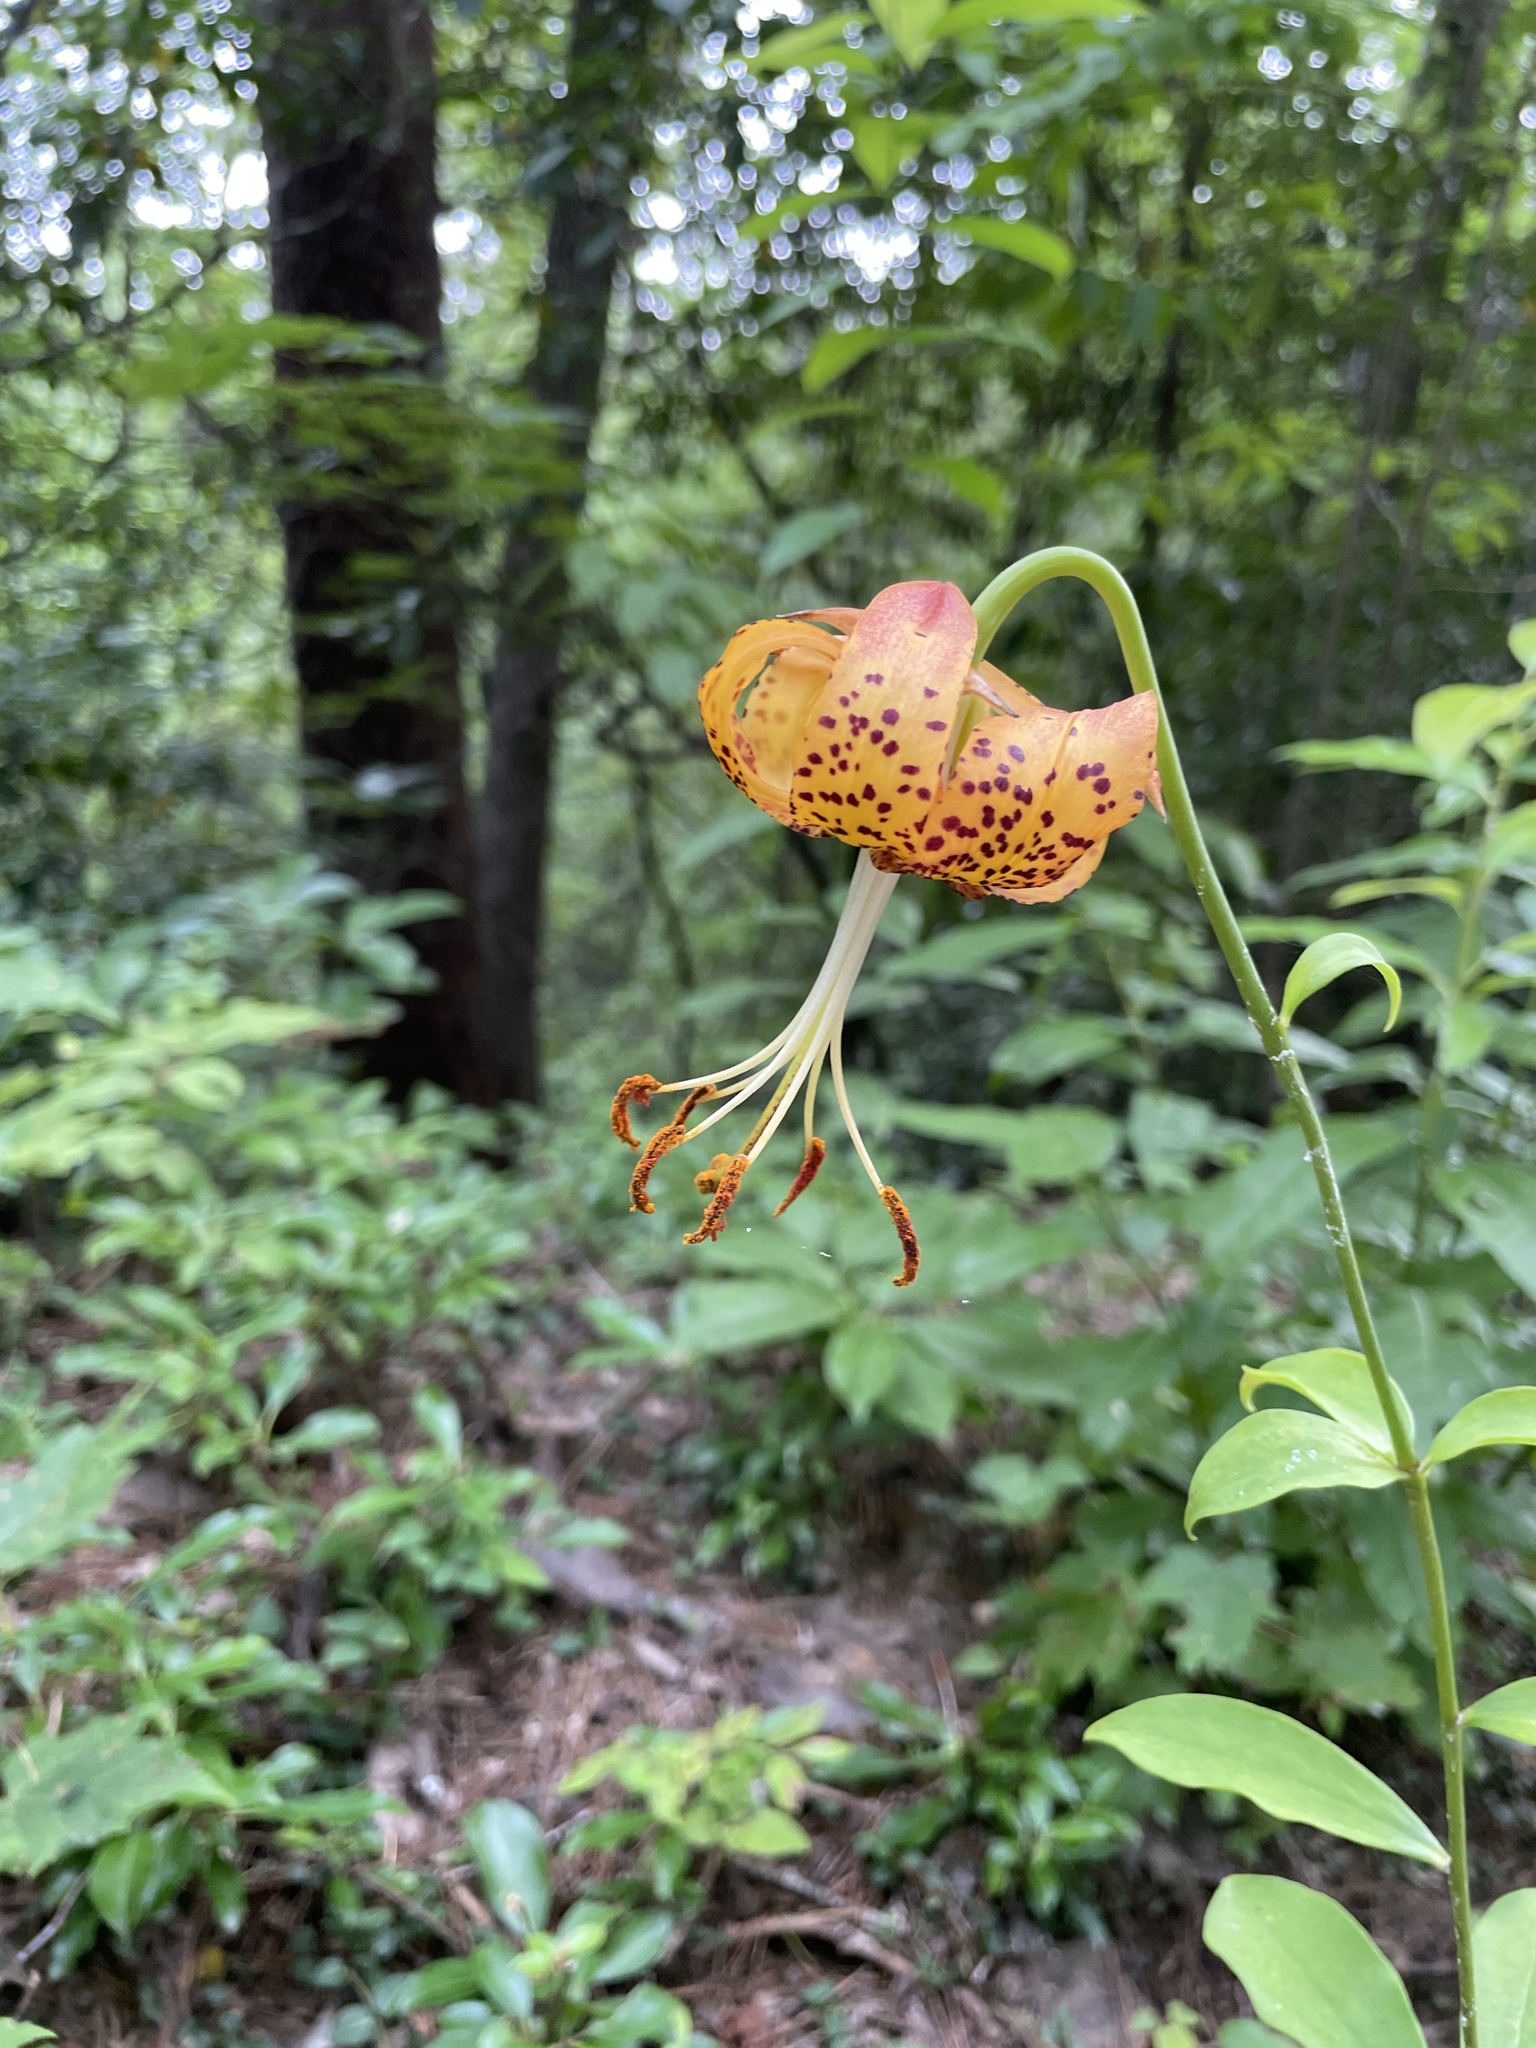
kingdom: Plantae
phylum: Tracheophyta
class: Liliopsida
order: Liliales
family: Liliaceae
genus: Lilium
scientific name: Lilium michauxii
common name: Carolina lily
